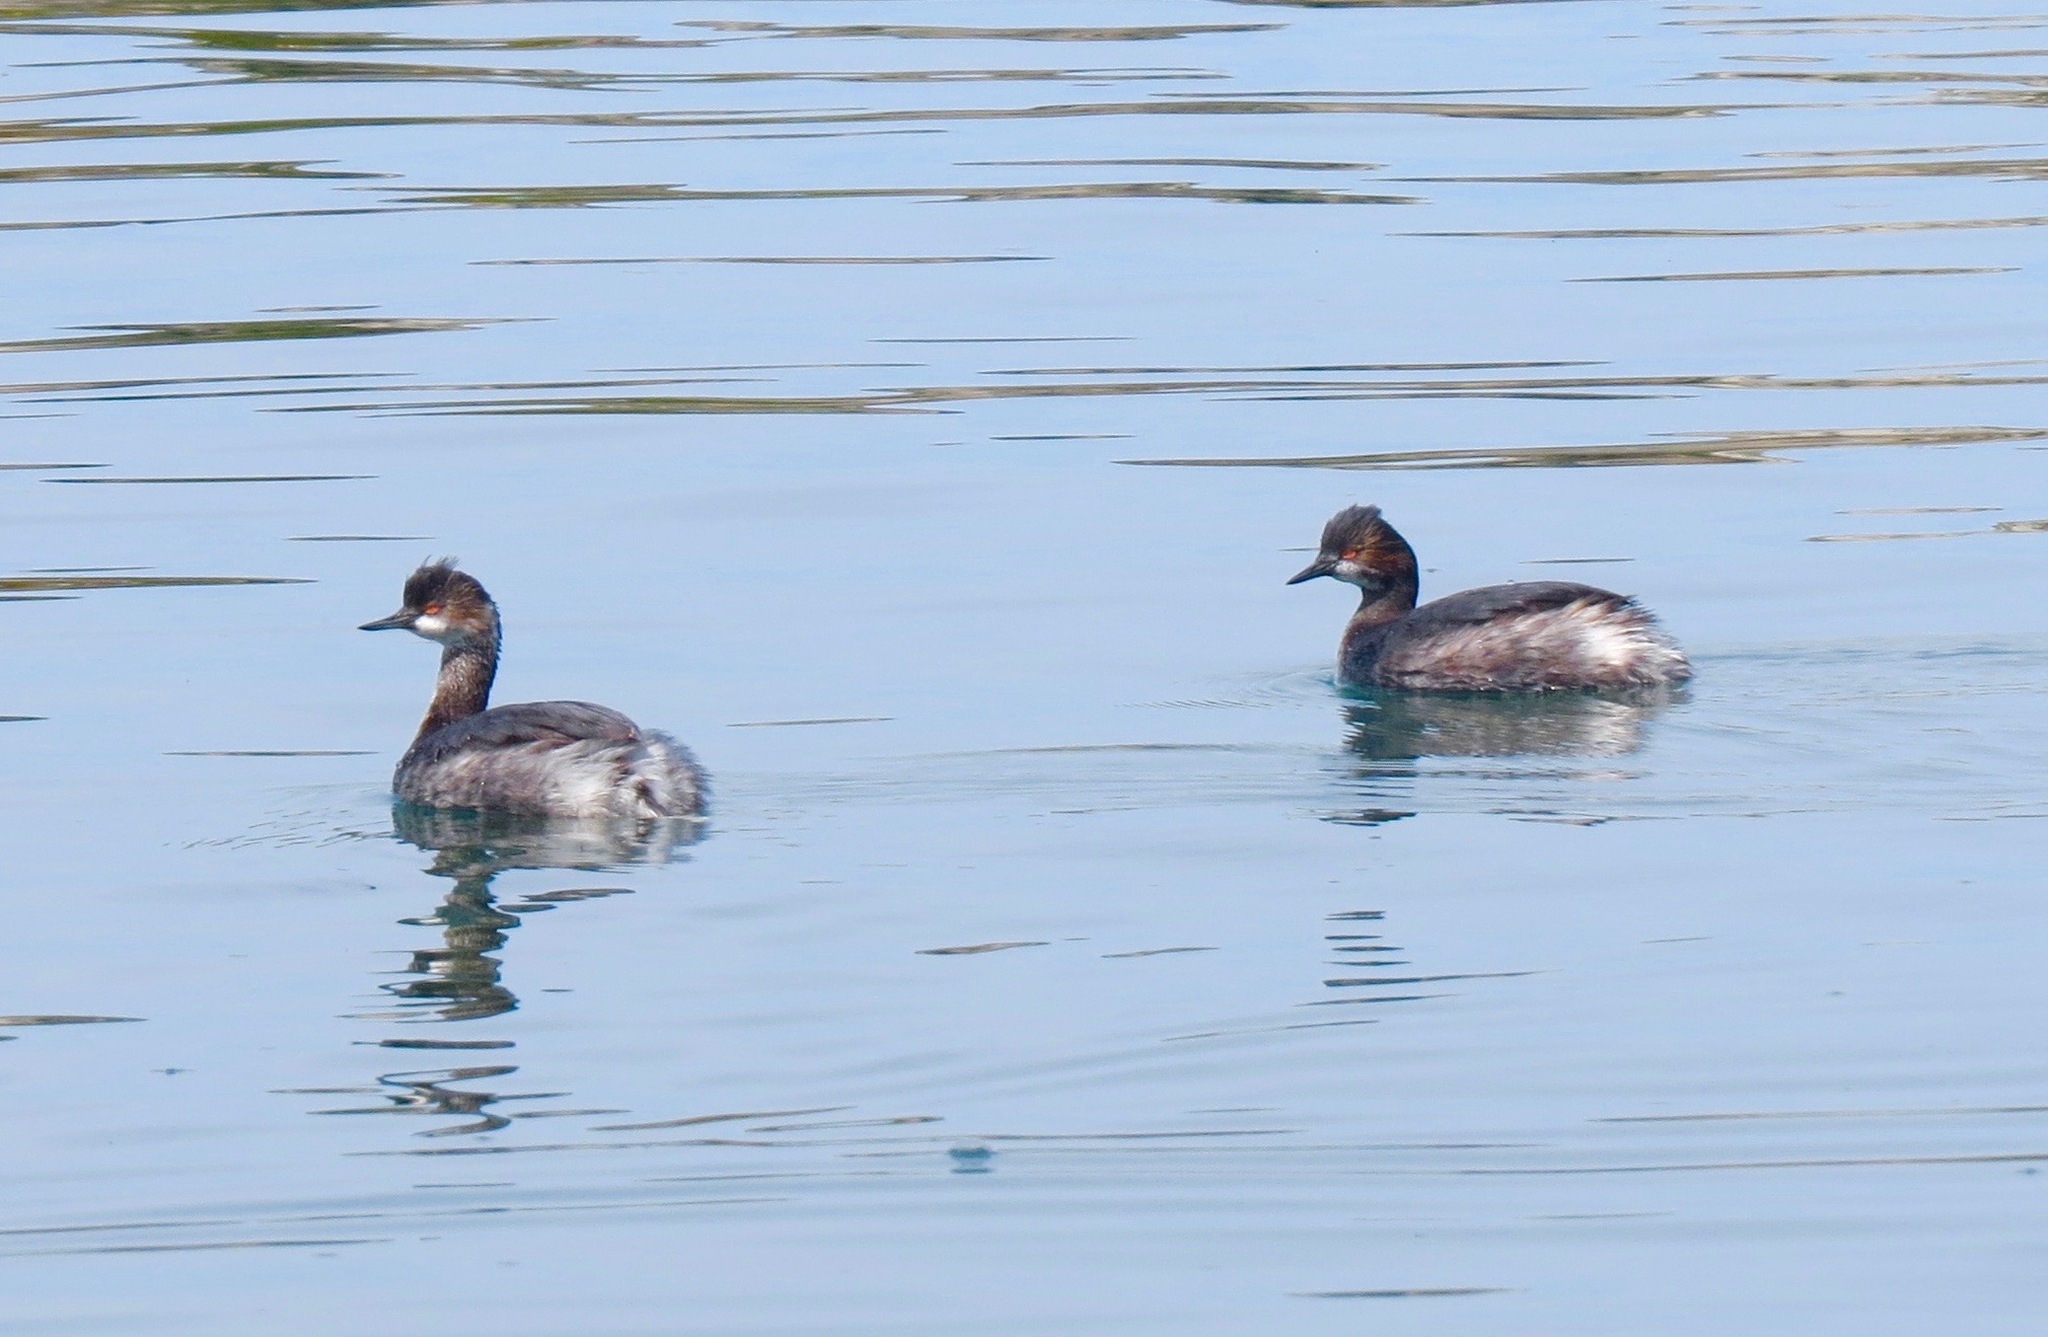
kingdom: Animalia
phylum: Chordata
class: Aves
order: Podicipediformes
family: Podicipedidae
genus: Podiceps
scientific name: Podiceps nigricollis
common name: Black-necked grebe
